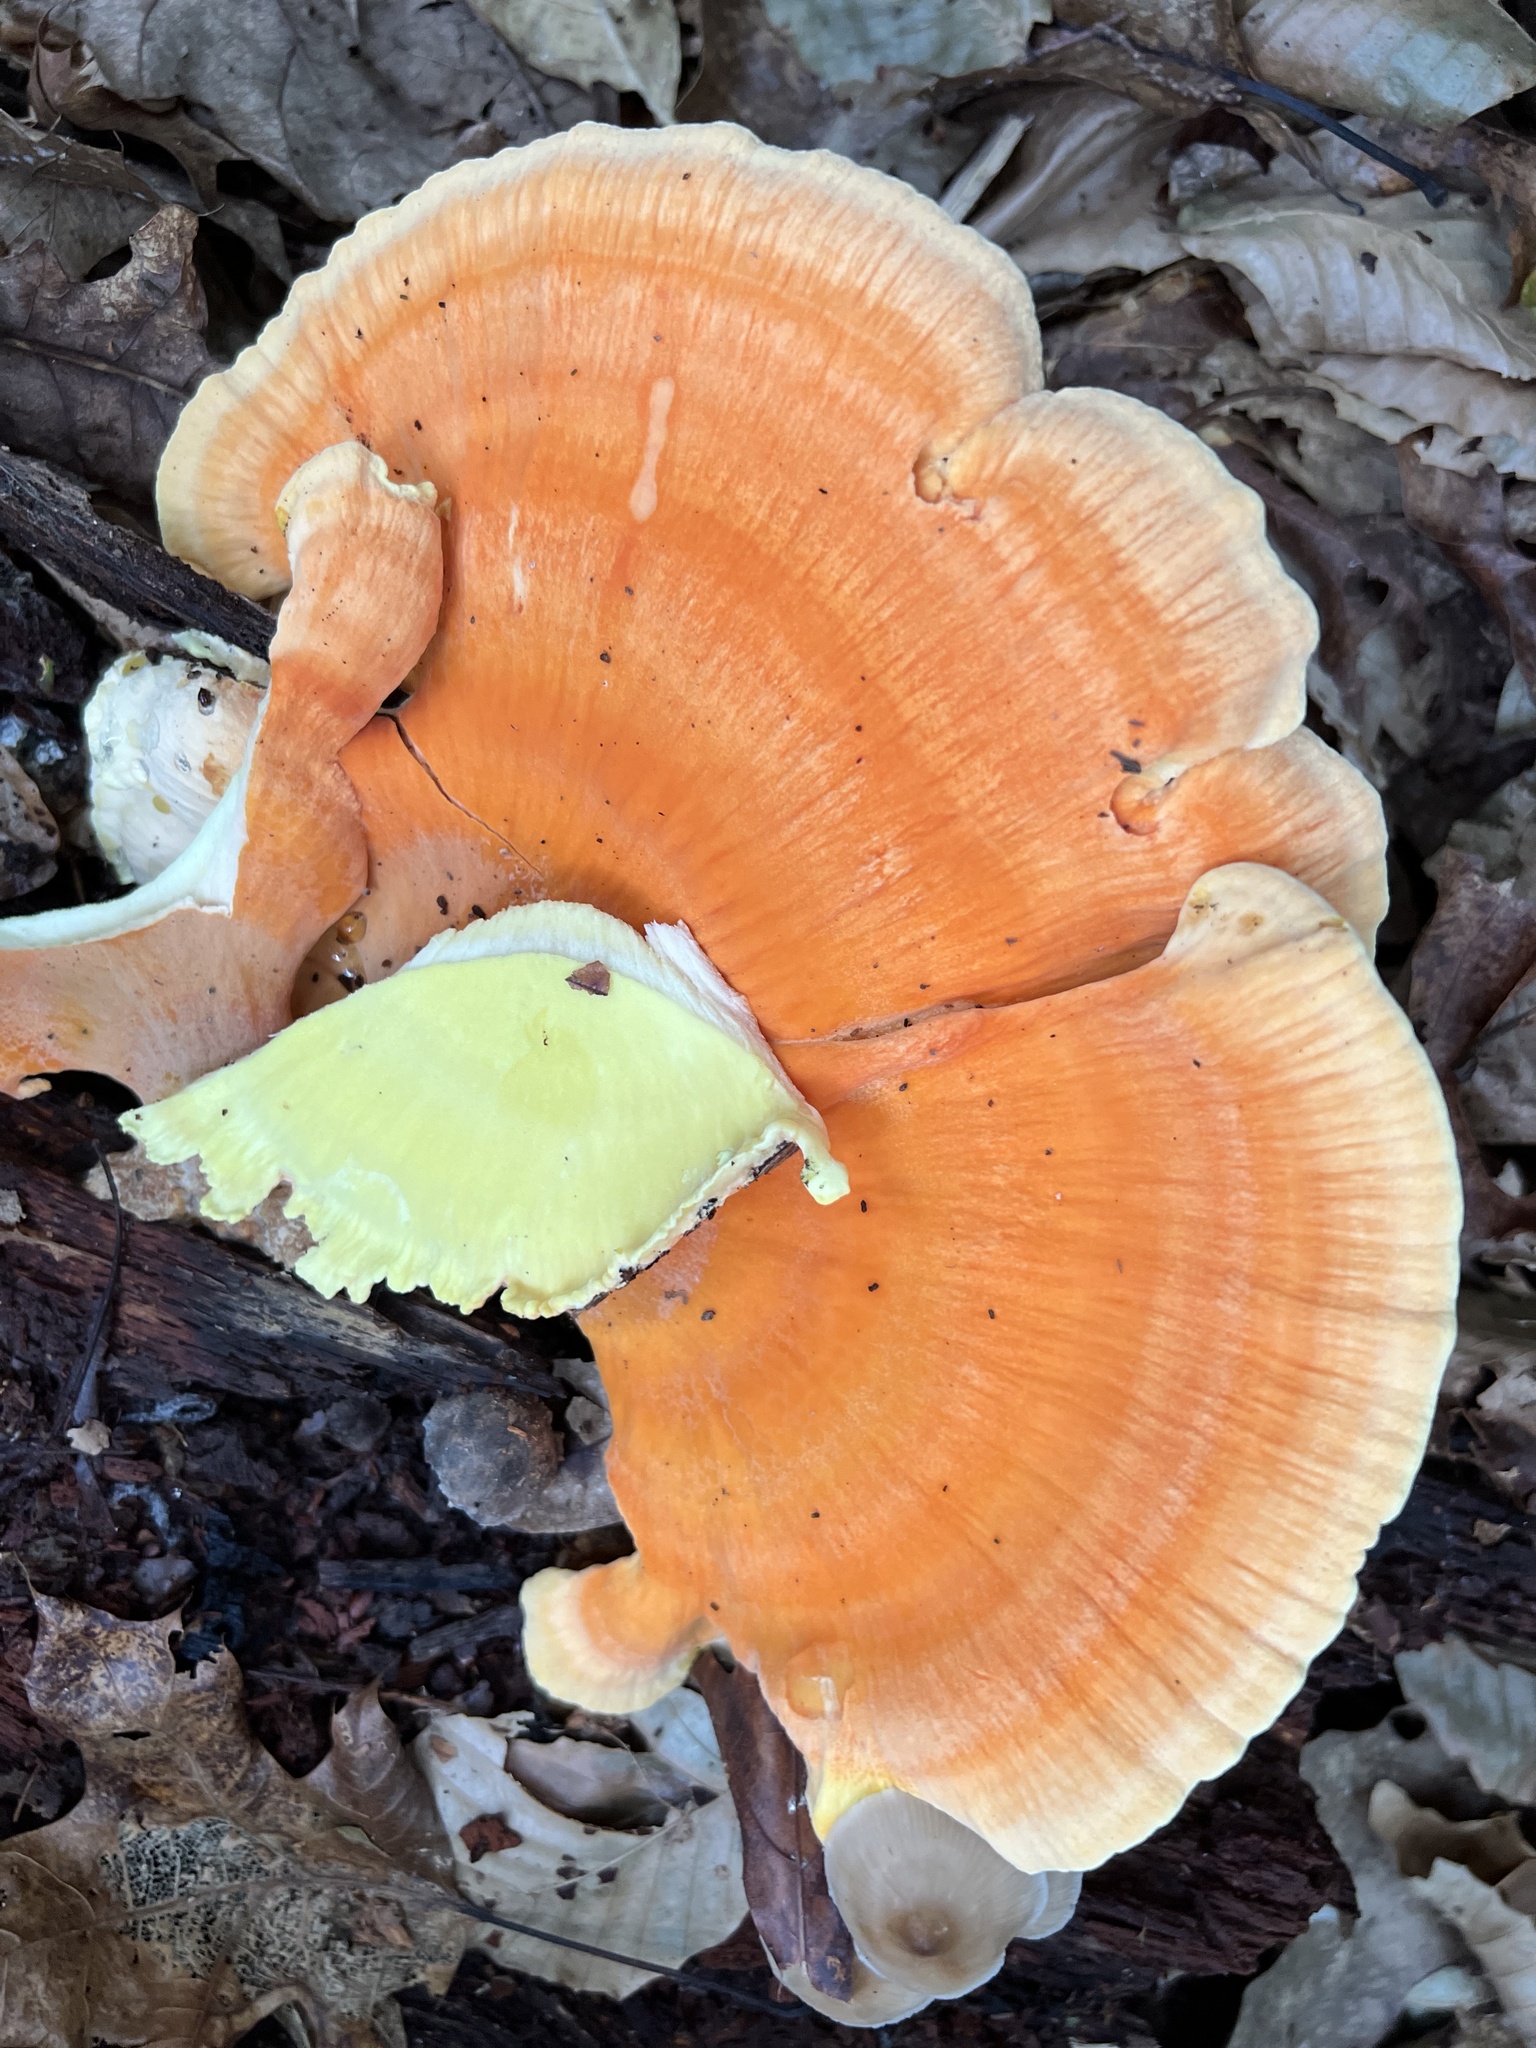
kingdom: Fungi
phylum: Basidiomycota
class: Agaricomycetes
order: Polyporales
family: Laetiporaceae
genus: Laetiporus
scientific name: Laetiporus sulphureus
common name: Chicken of the woods
